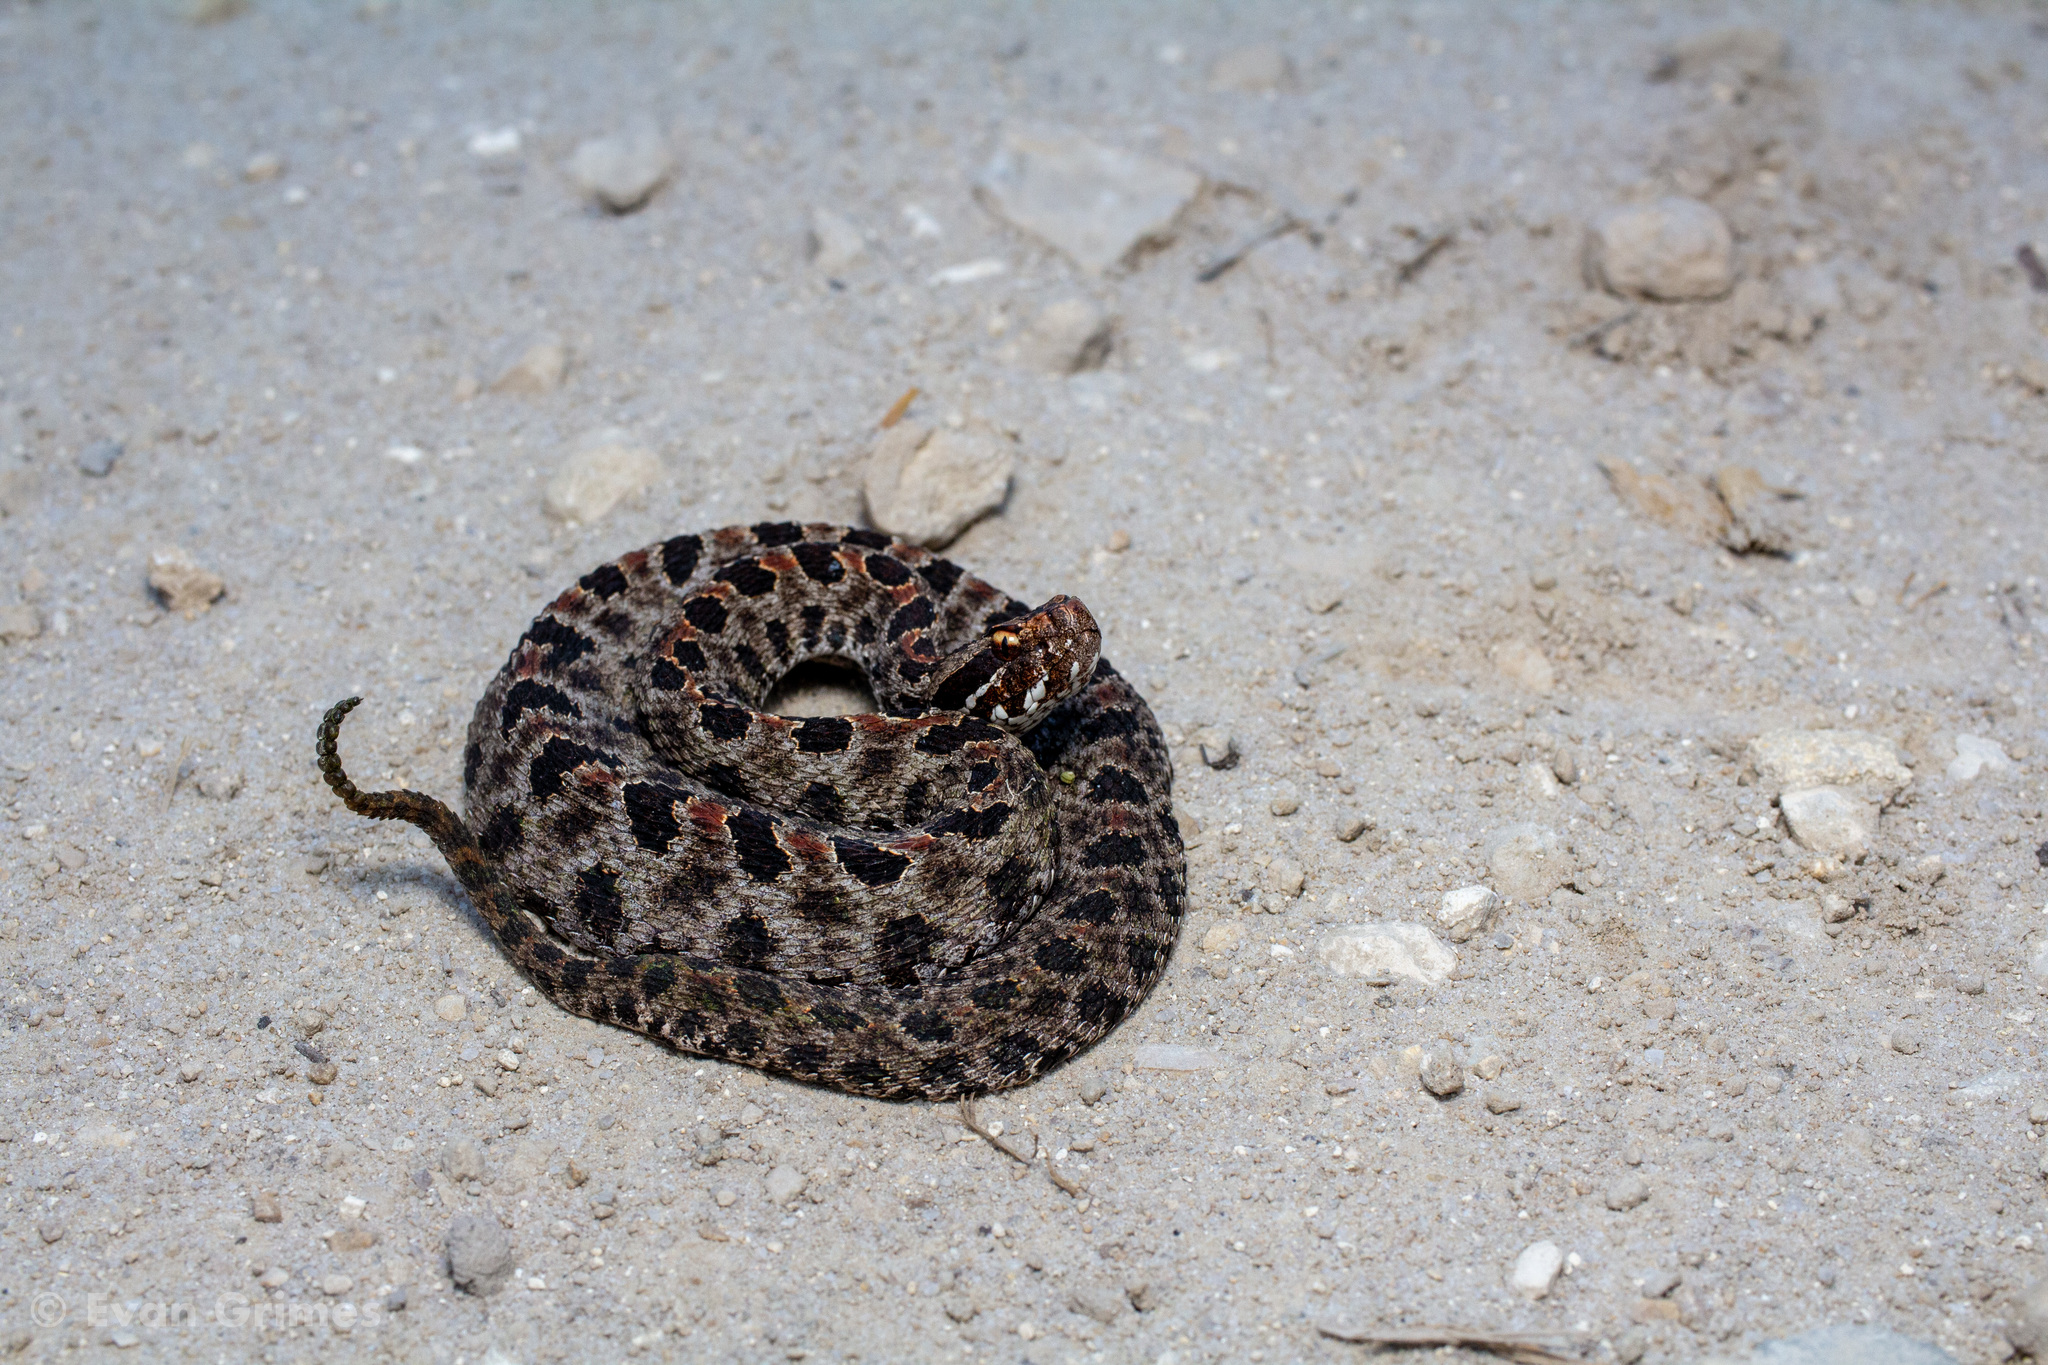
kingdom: Animalia
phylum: Chordata
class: Squamata
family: Viperidae
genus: Sistrurus
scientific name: Sistrurus miliarius
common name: Pygmy rattlesnake
